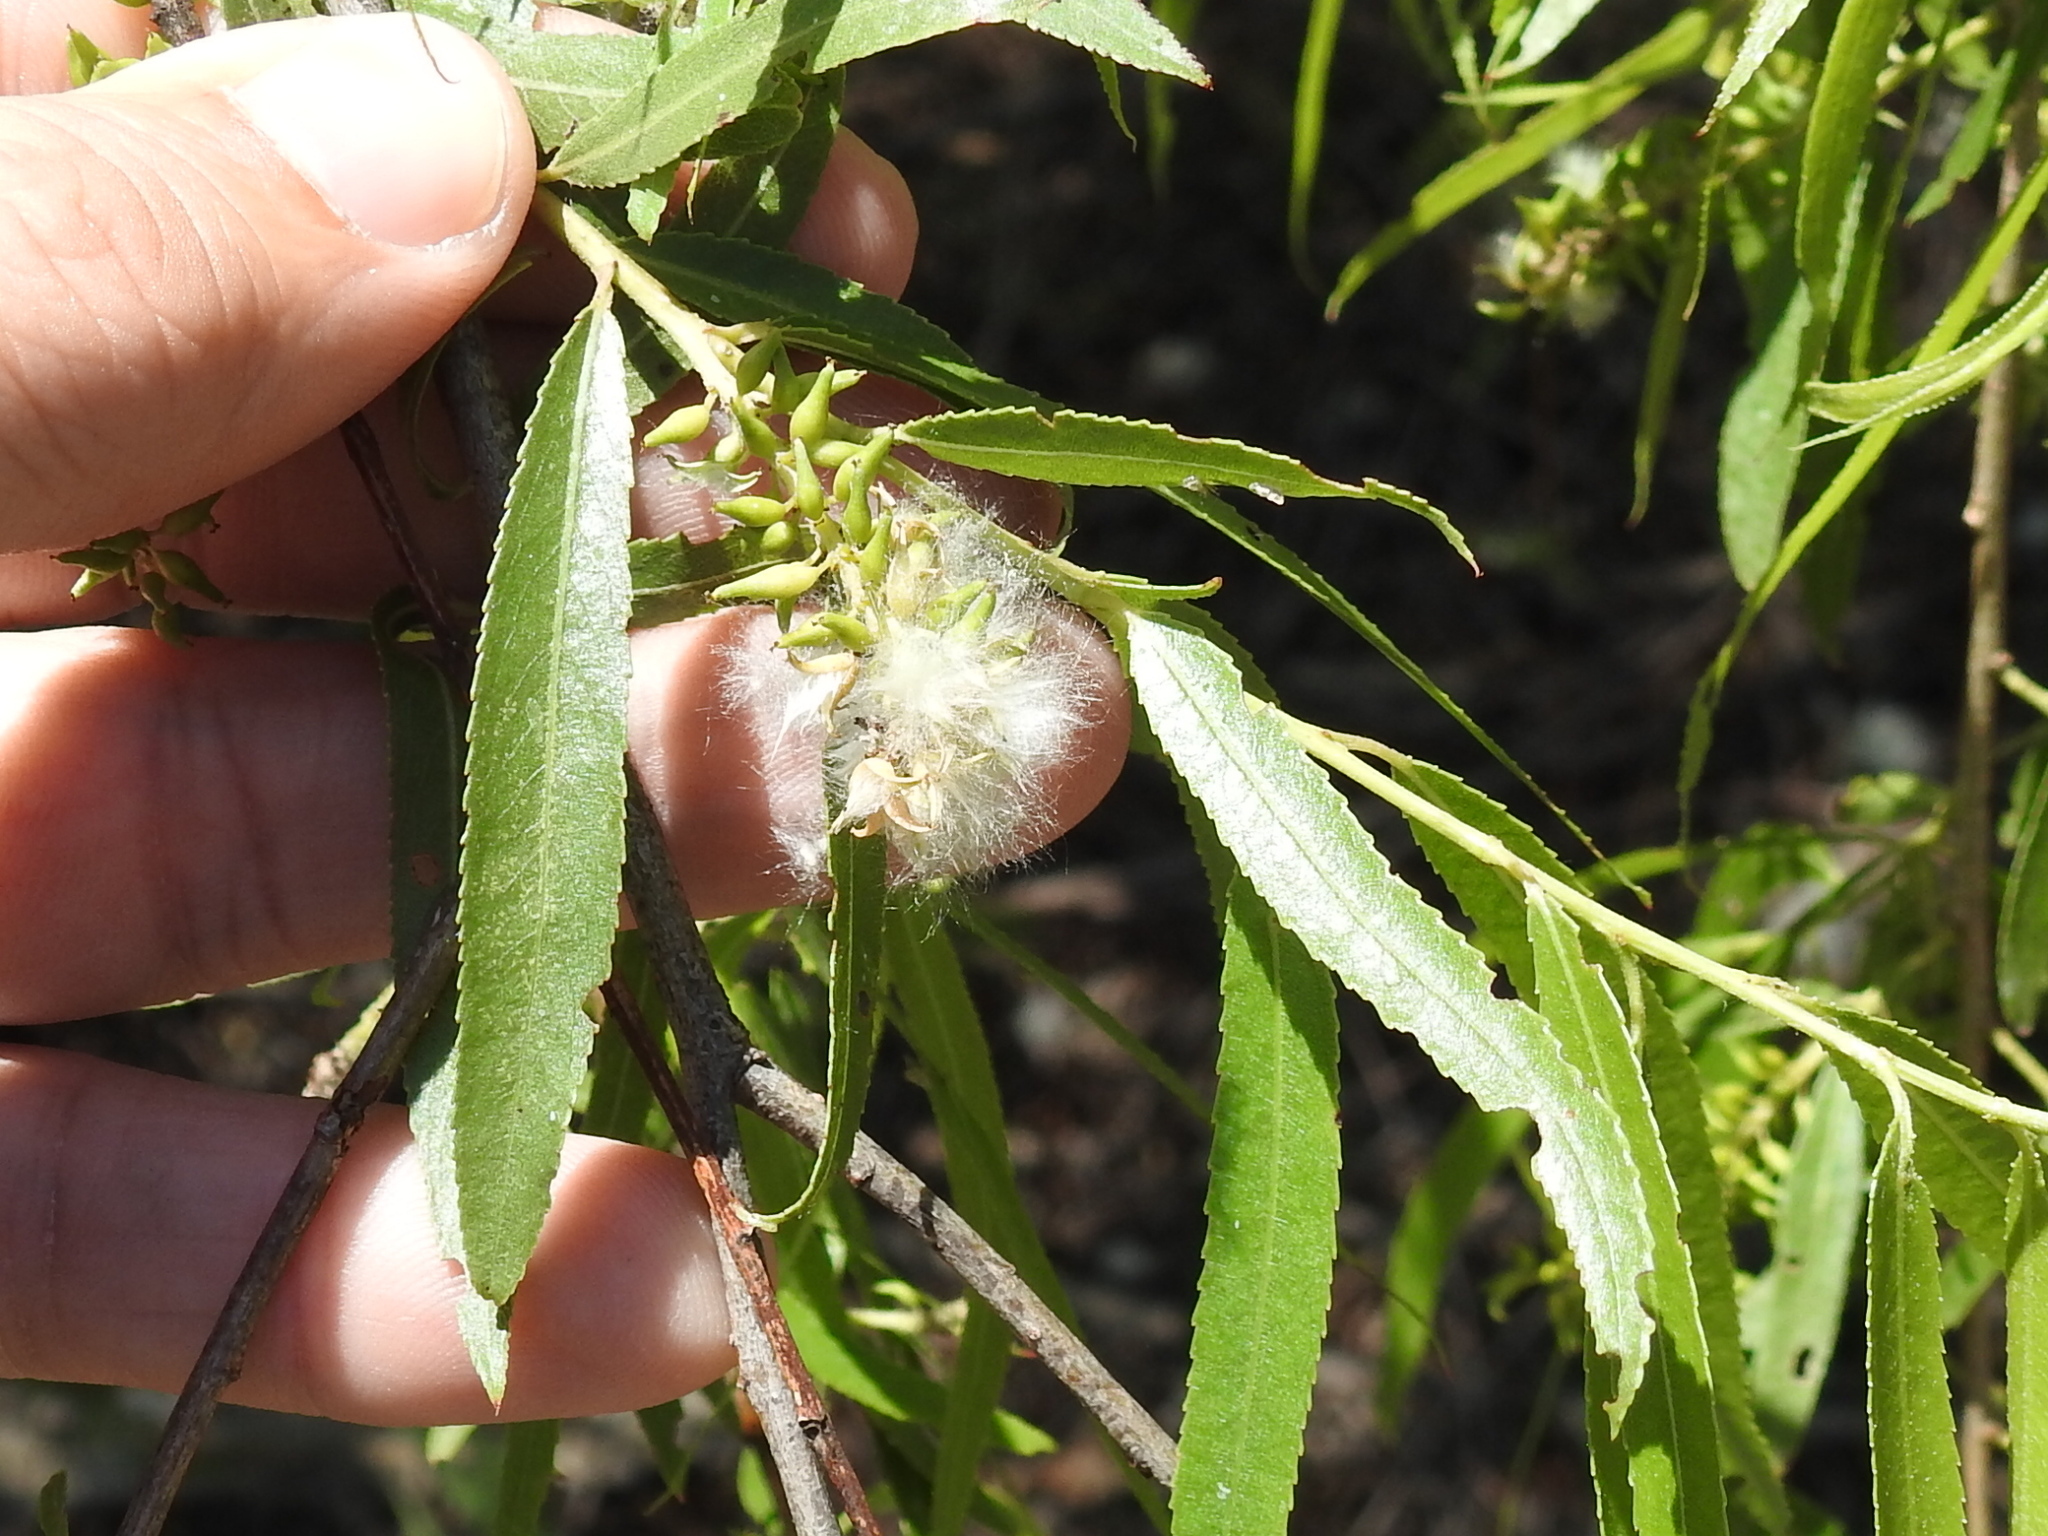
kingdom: Plantae
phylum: Tracheophyta
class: Magnoliopsida
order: Malpighiales
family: Salicaceae
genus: Salix
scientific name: Salix nigra
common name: Black willow
